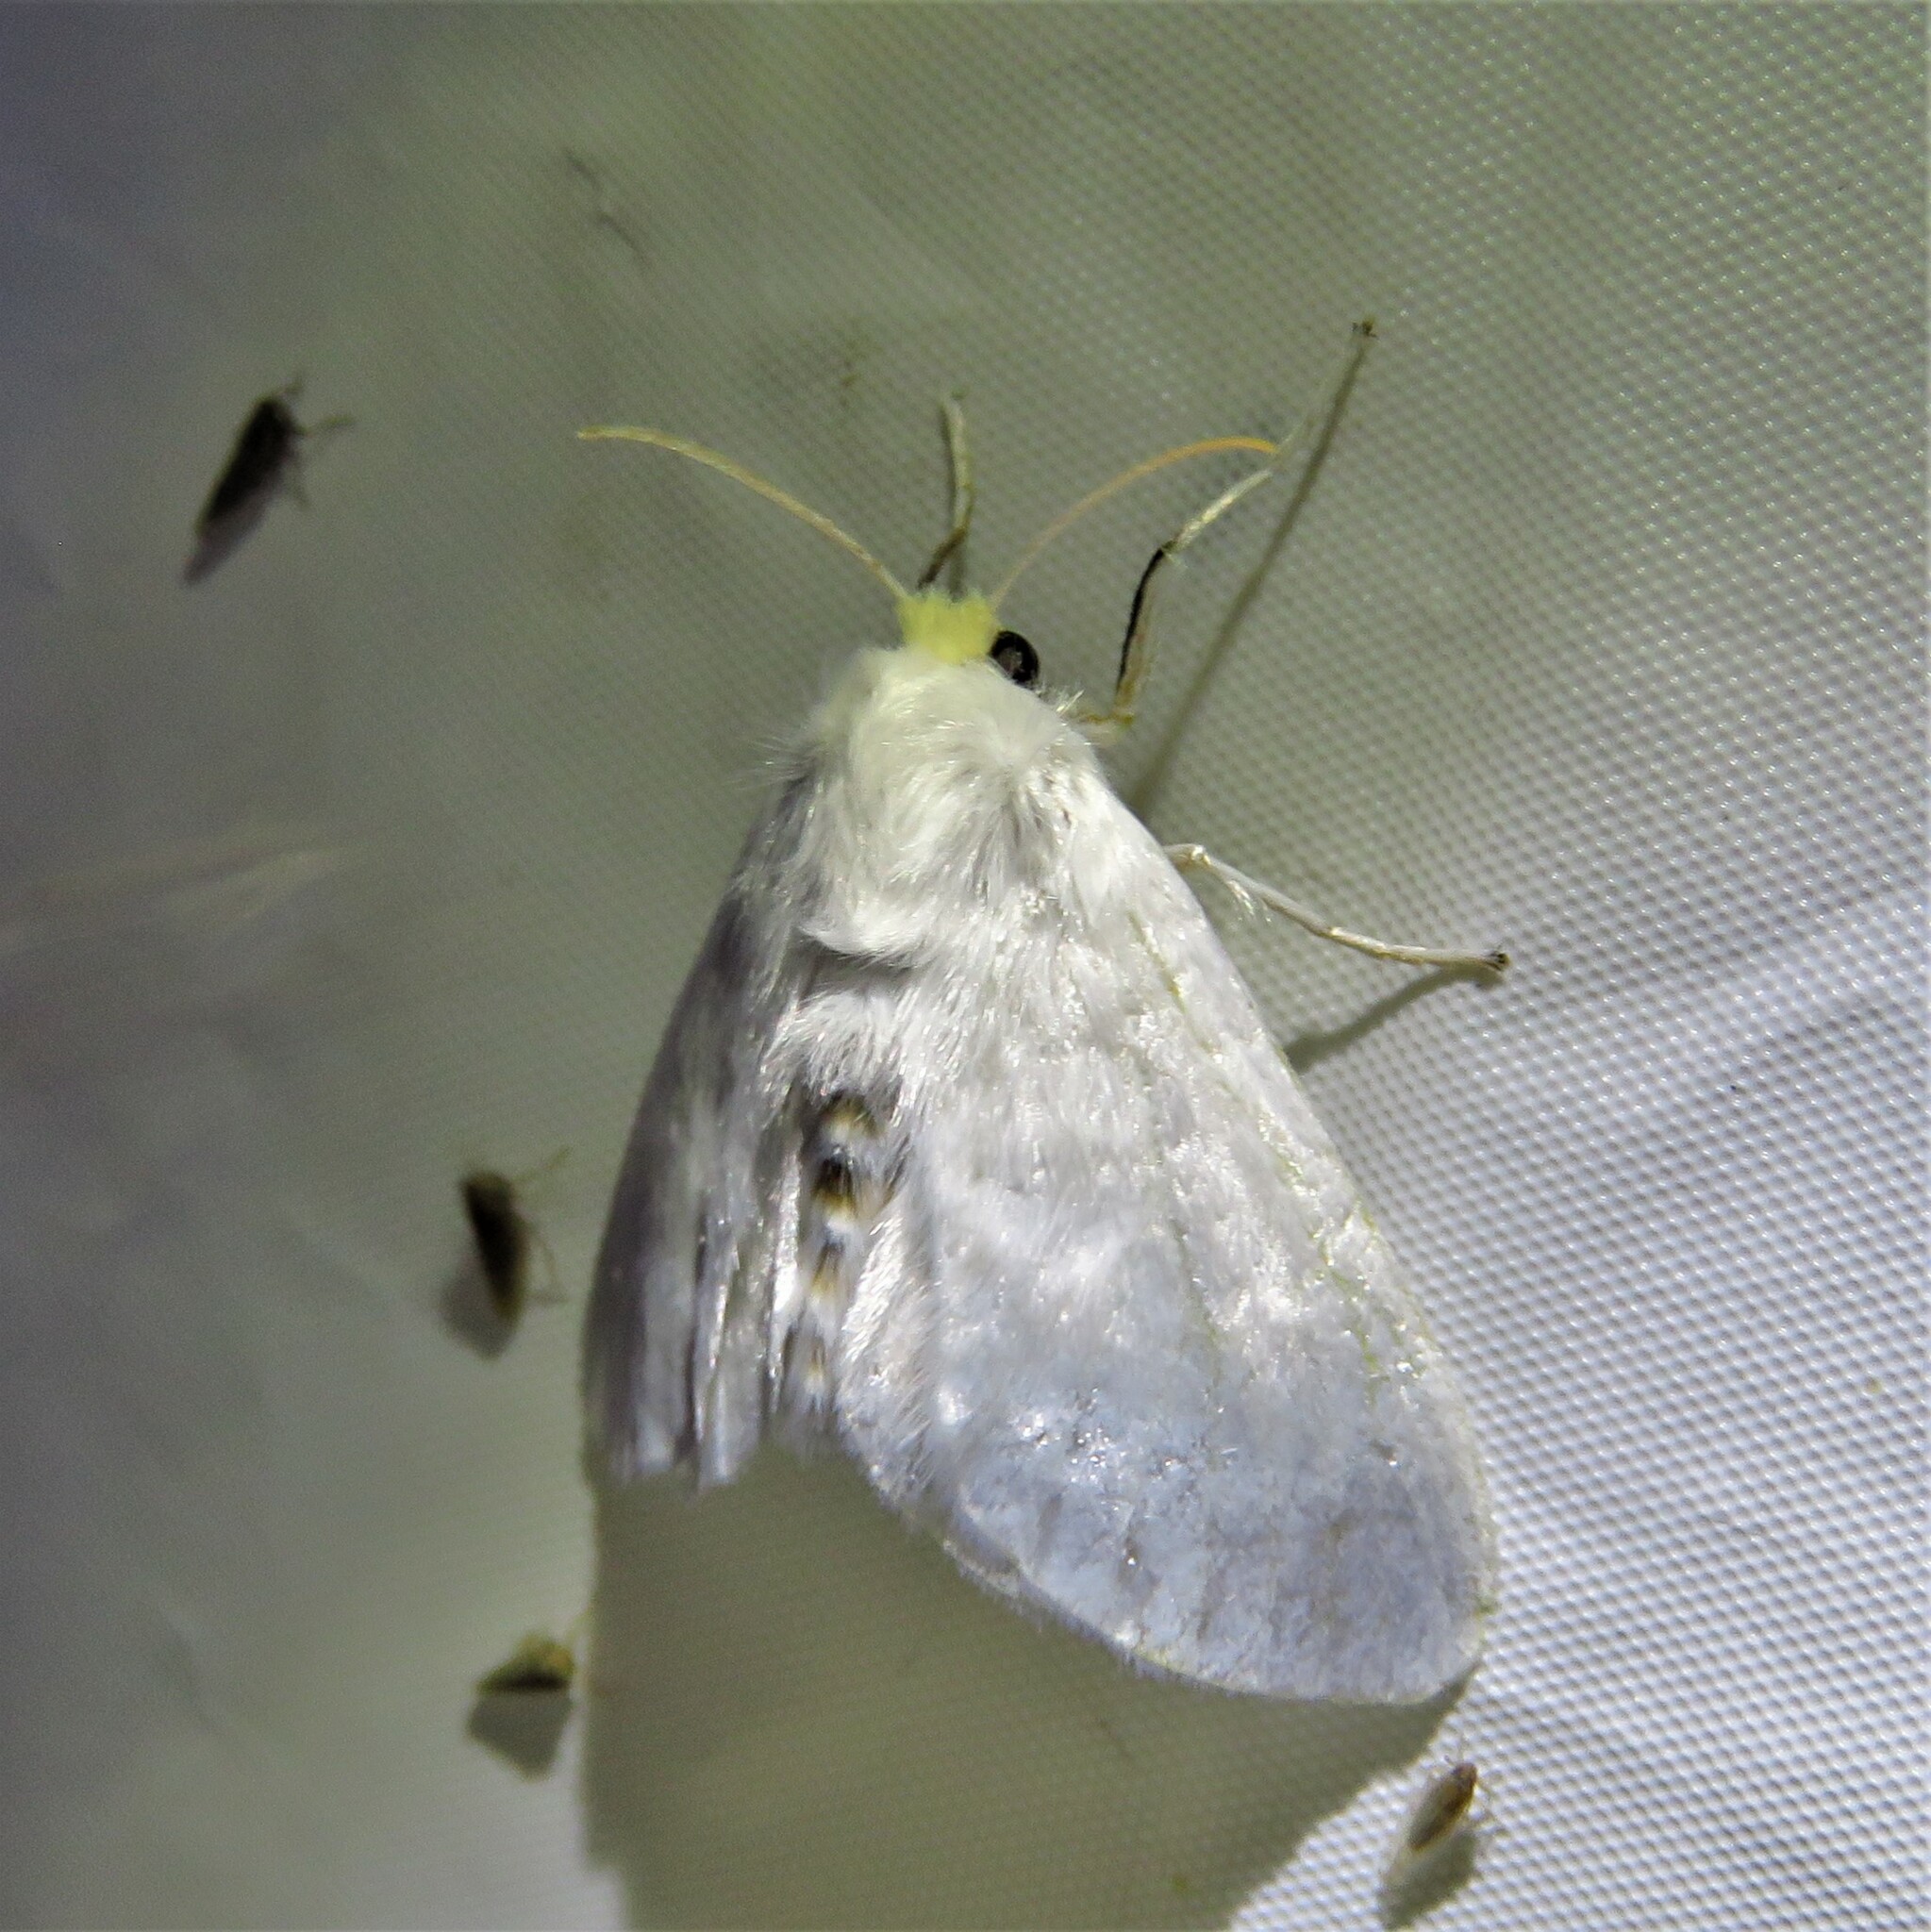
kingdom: Animalia
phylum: Arthropoda
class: Insecta
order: Lepidoptera
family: Megalopygidae
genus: Norape
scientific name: Norape cretata
